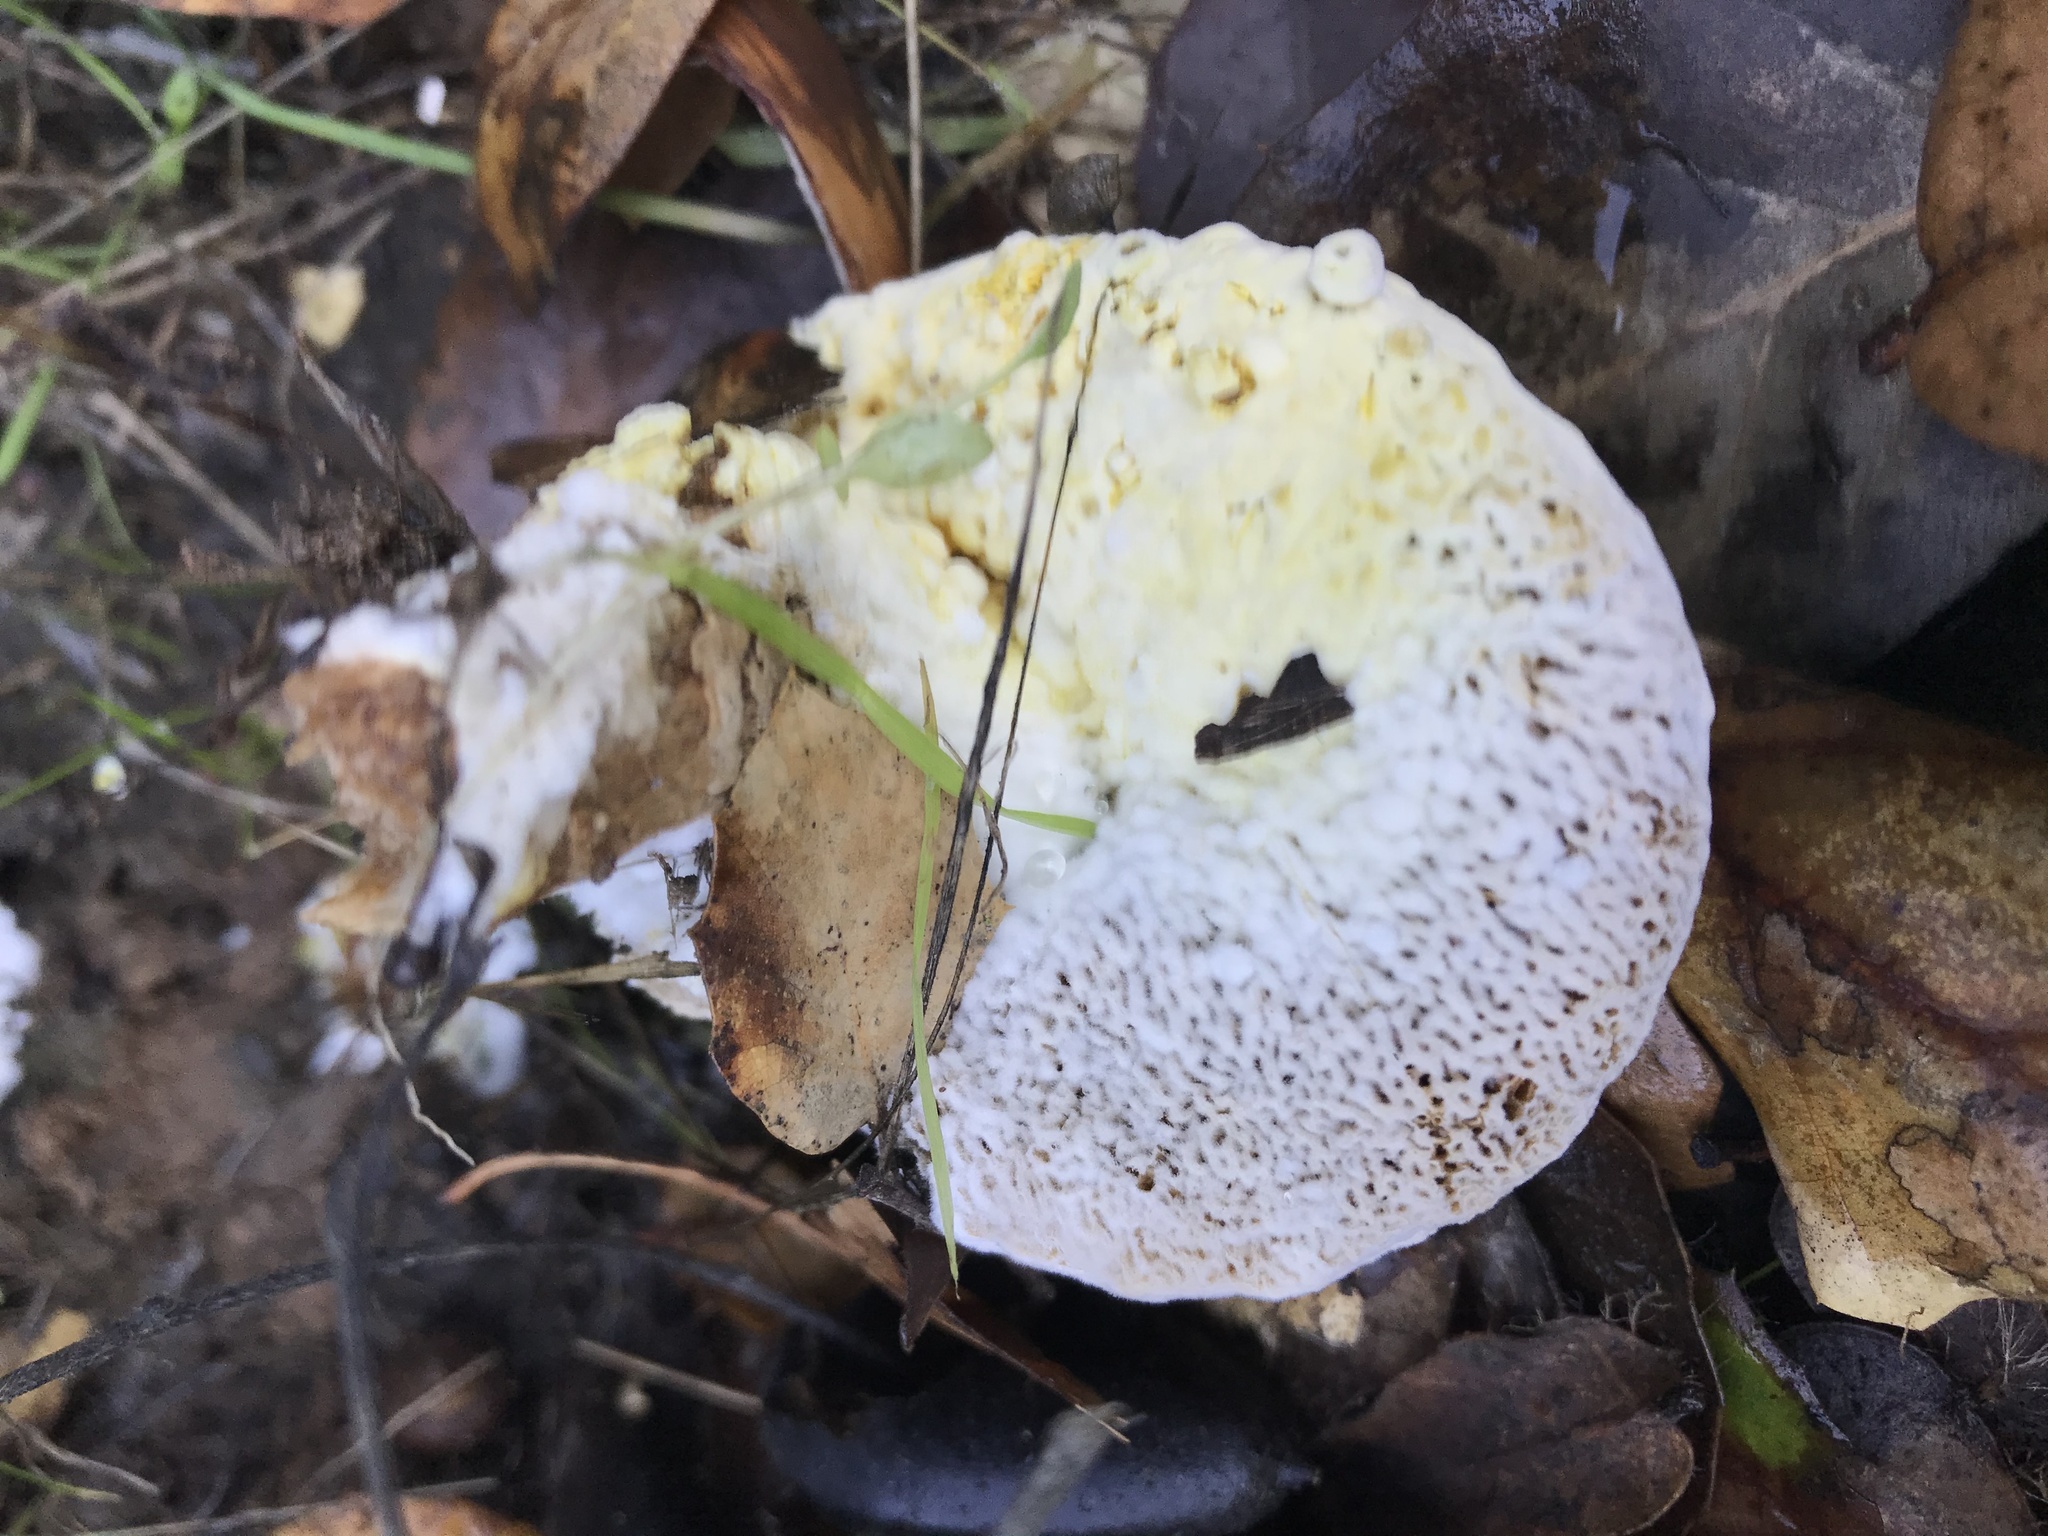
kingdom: Fungi
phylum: Ascomycota
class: Sordariomycetes
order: Hypocreales
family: Hypocreaceae
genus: Hypomyces
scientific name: Hypomyces chrysospermus
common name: Bolete mould
